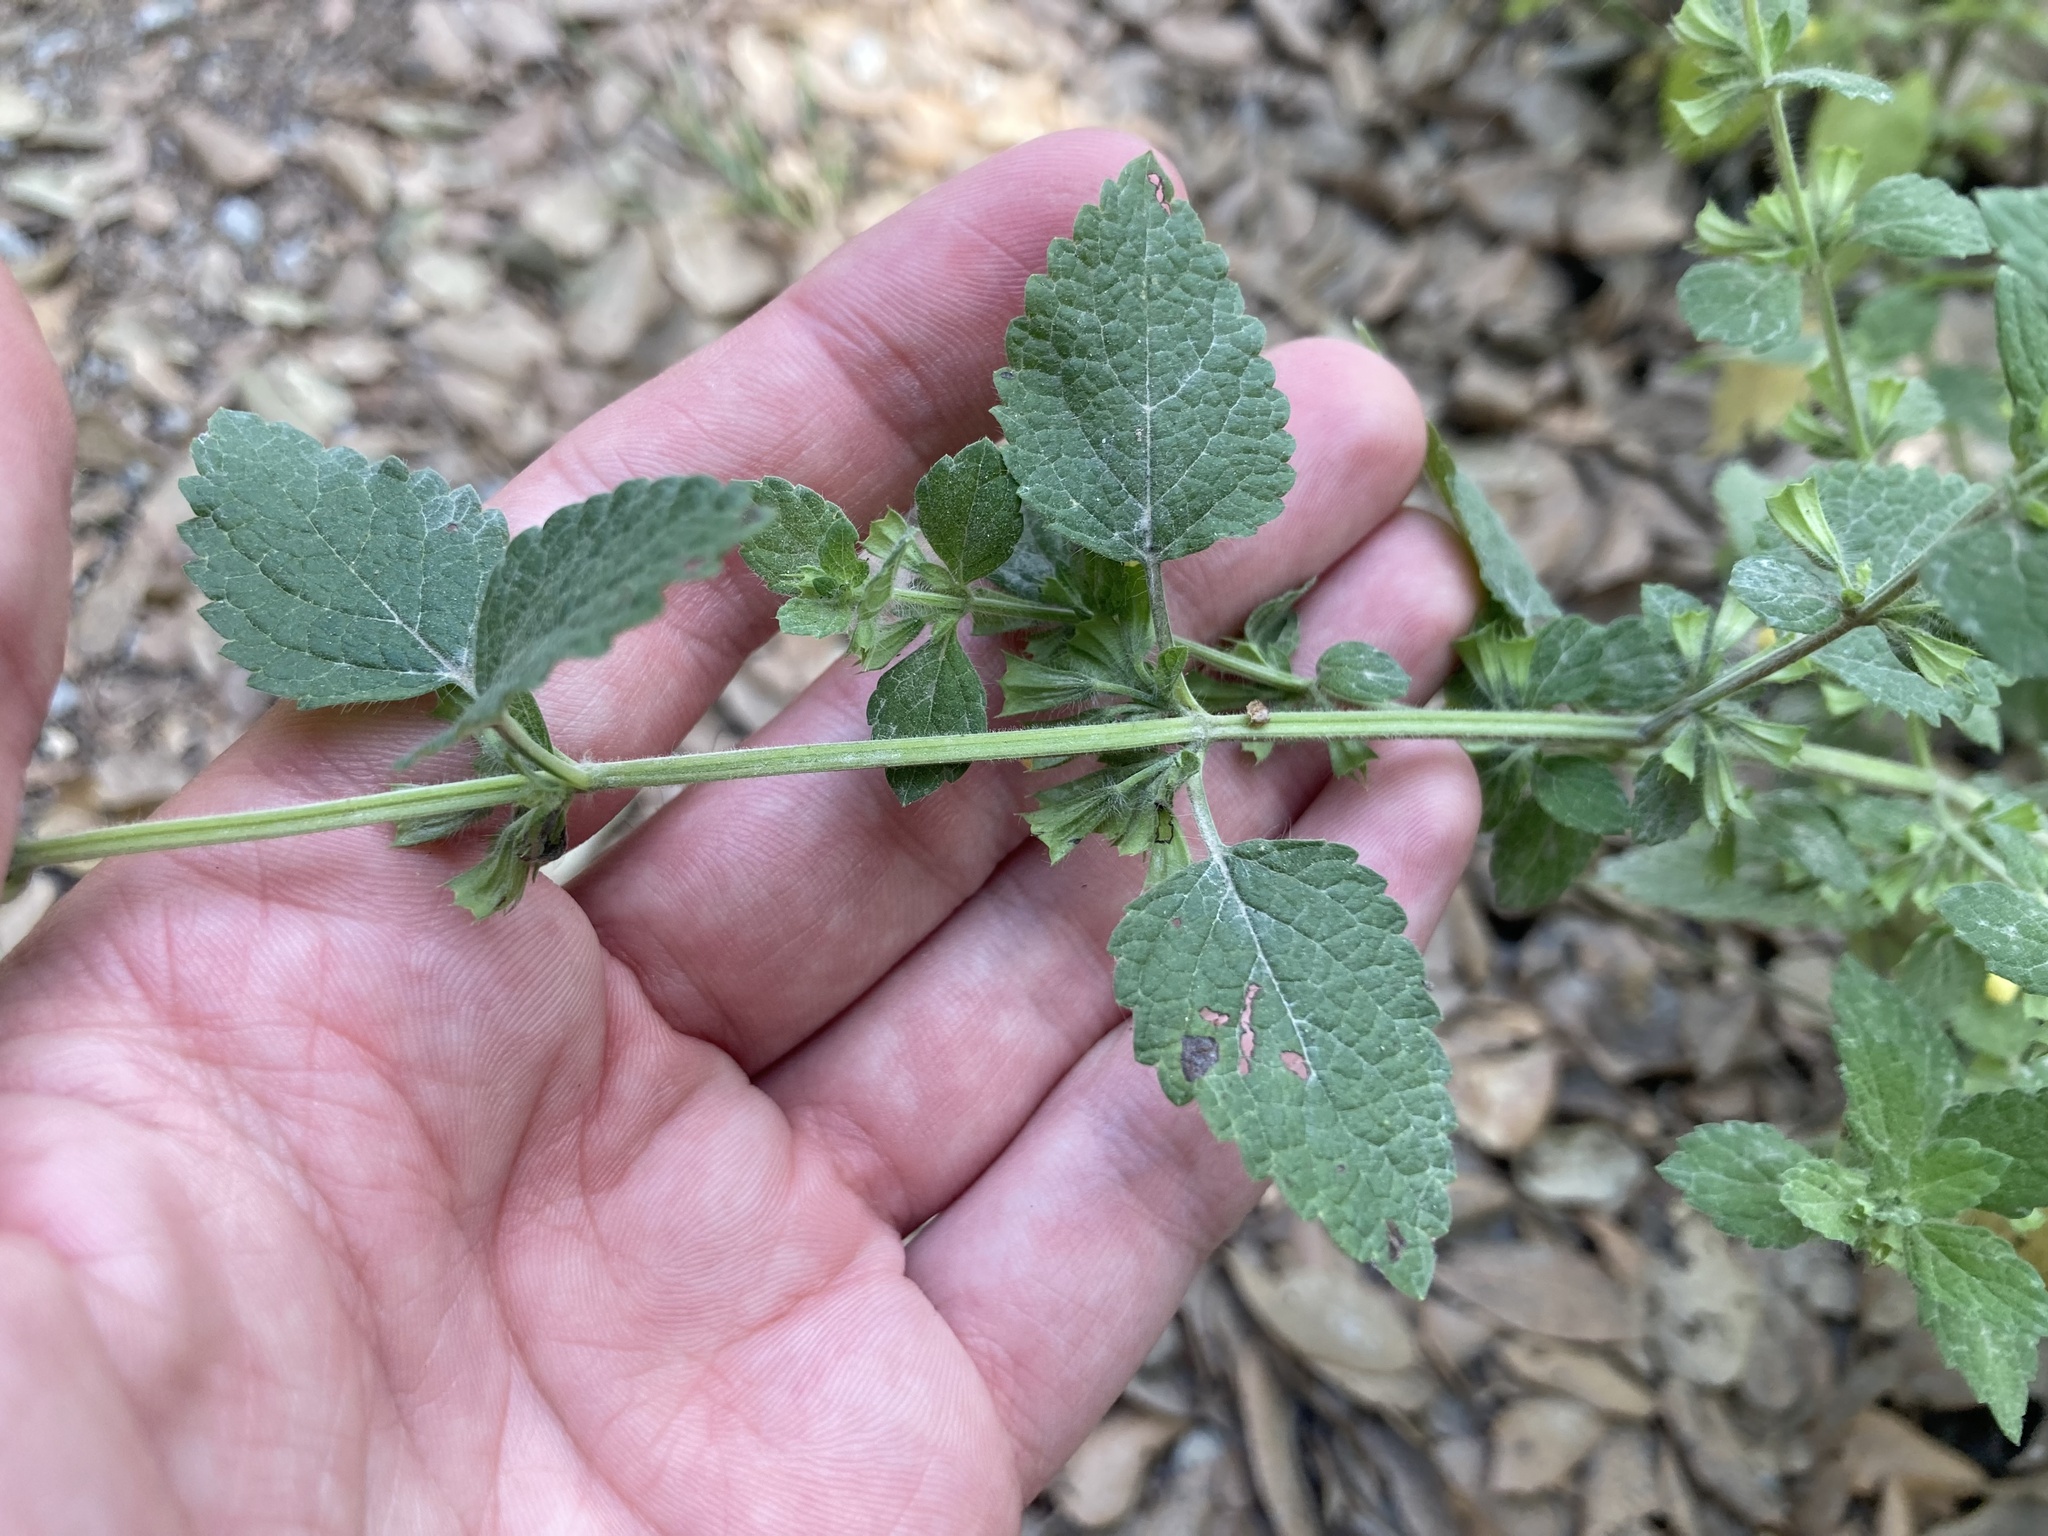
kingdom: Plantae
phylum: Tracheophyta
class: Magnoliopsida
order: Lamiales
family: Lamiaceae
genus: Melissa
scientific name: Melissa officinalis
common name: Balm
